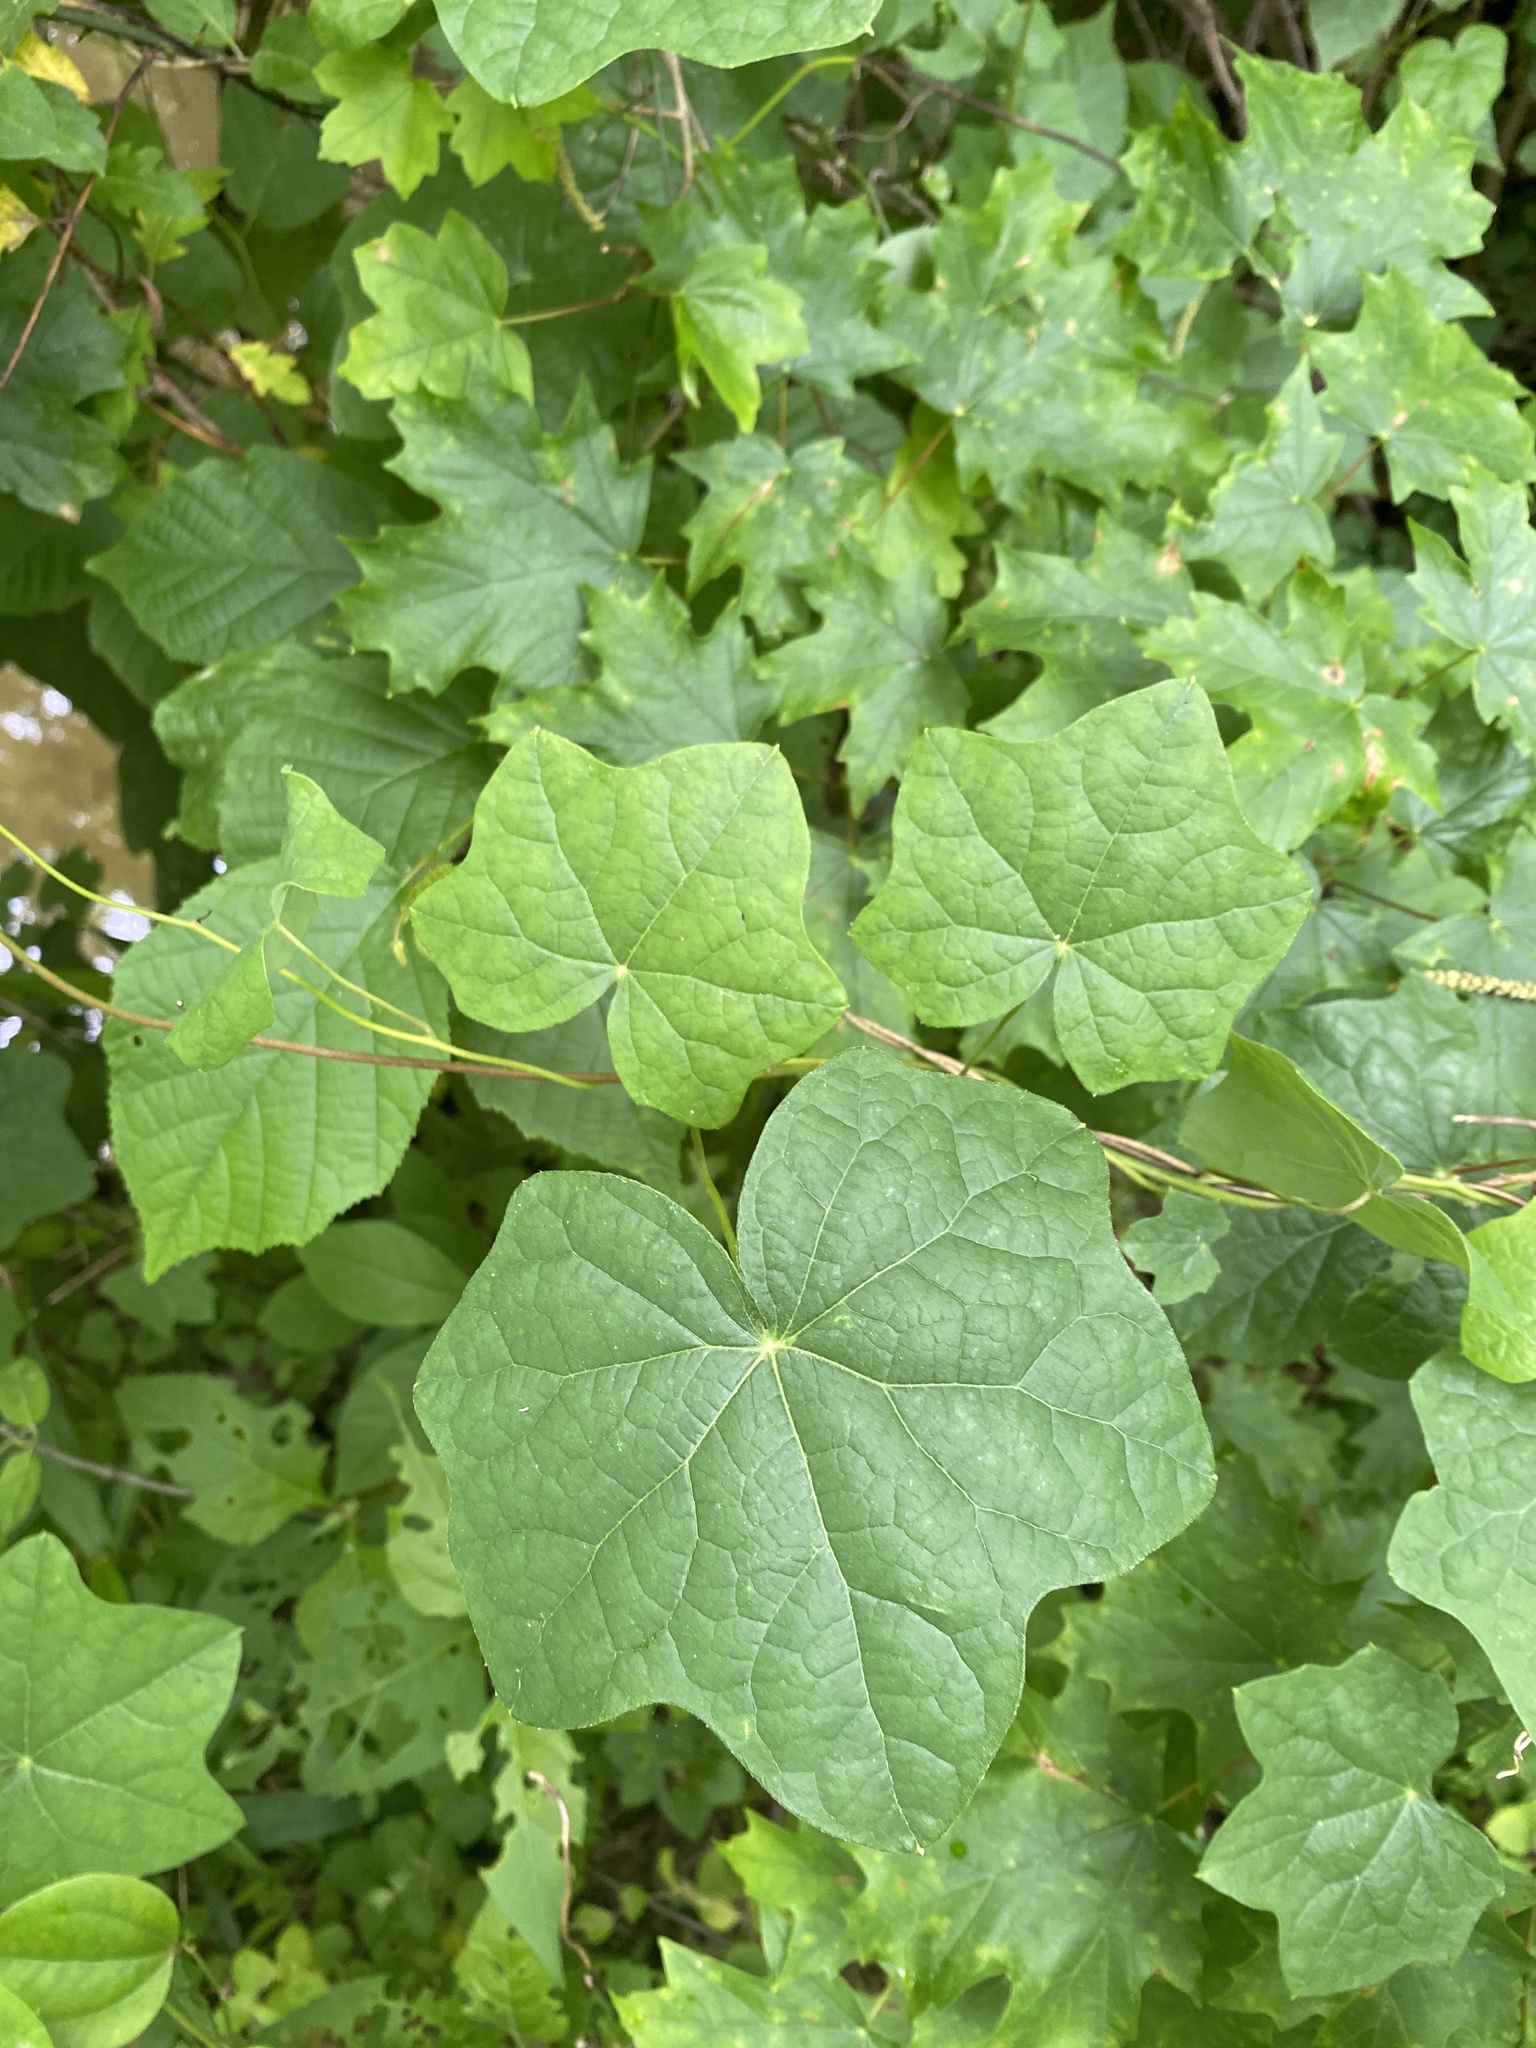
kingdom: Plantae
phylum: Tracheophyta
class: Magnoliopsida
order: Ranunculales
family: Menispermaceae
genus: Menispermum
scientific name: Menispermum canadense
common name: Moonseed
